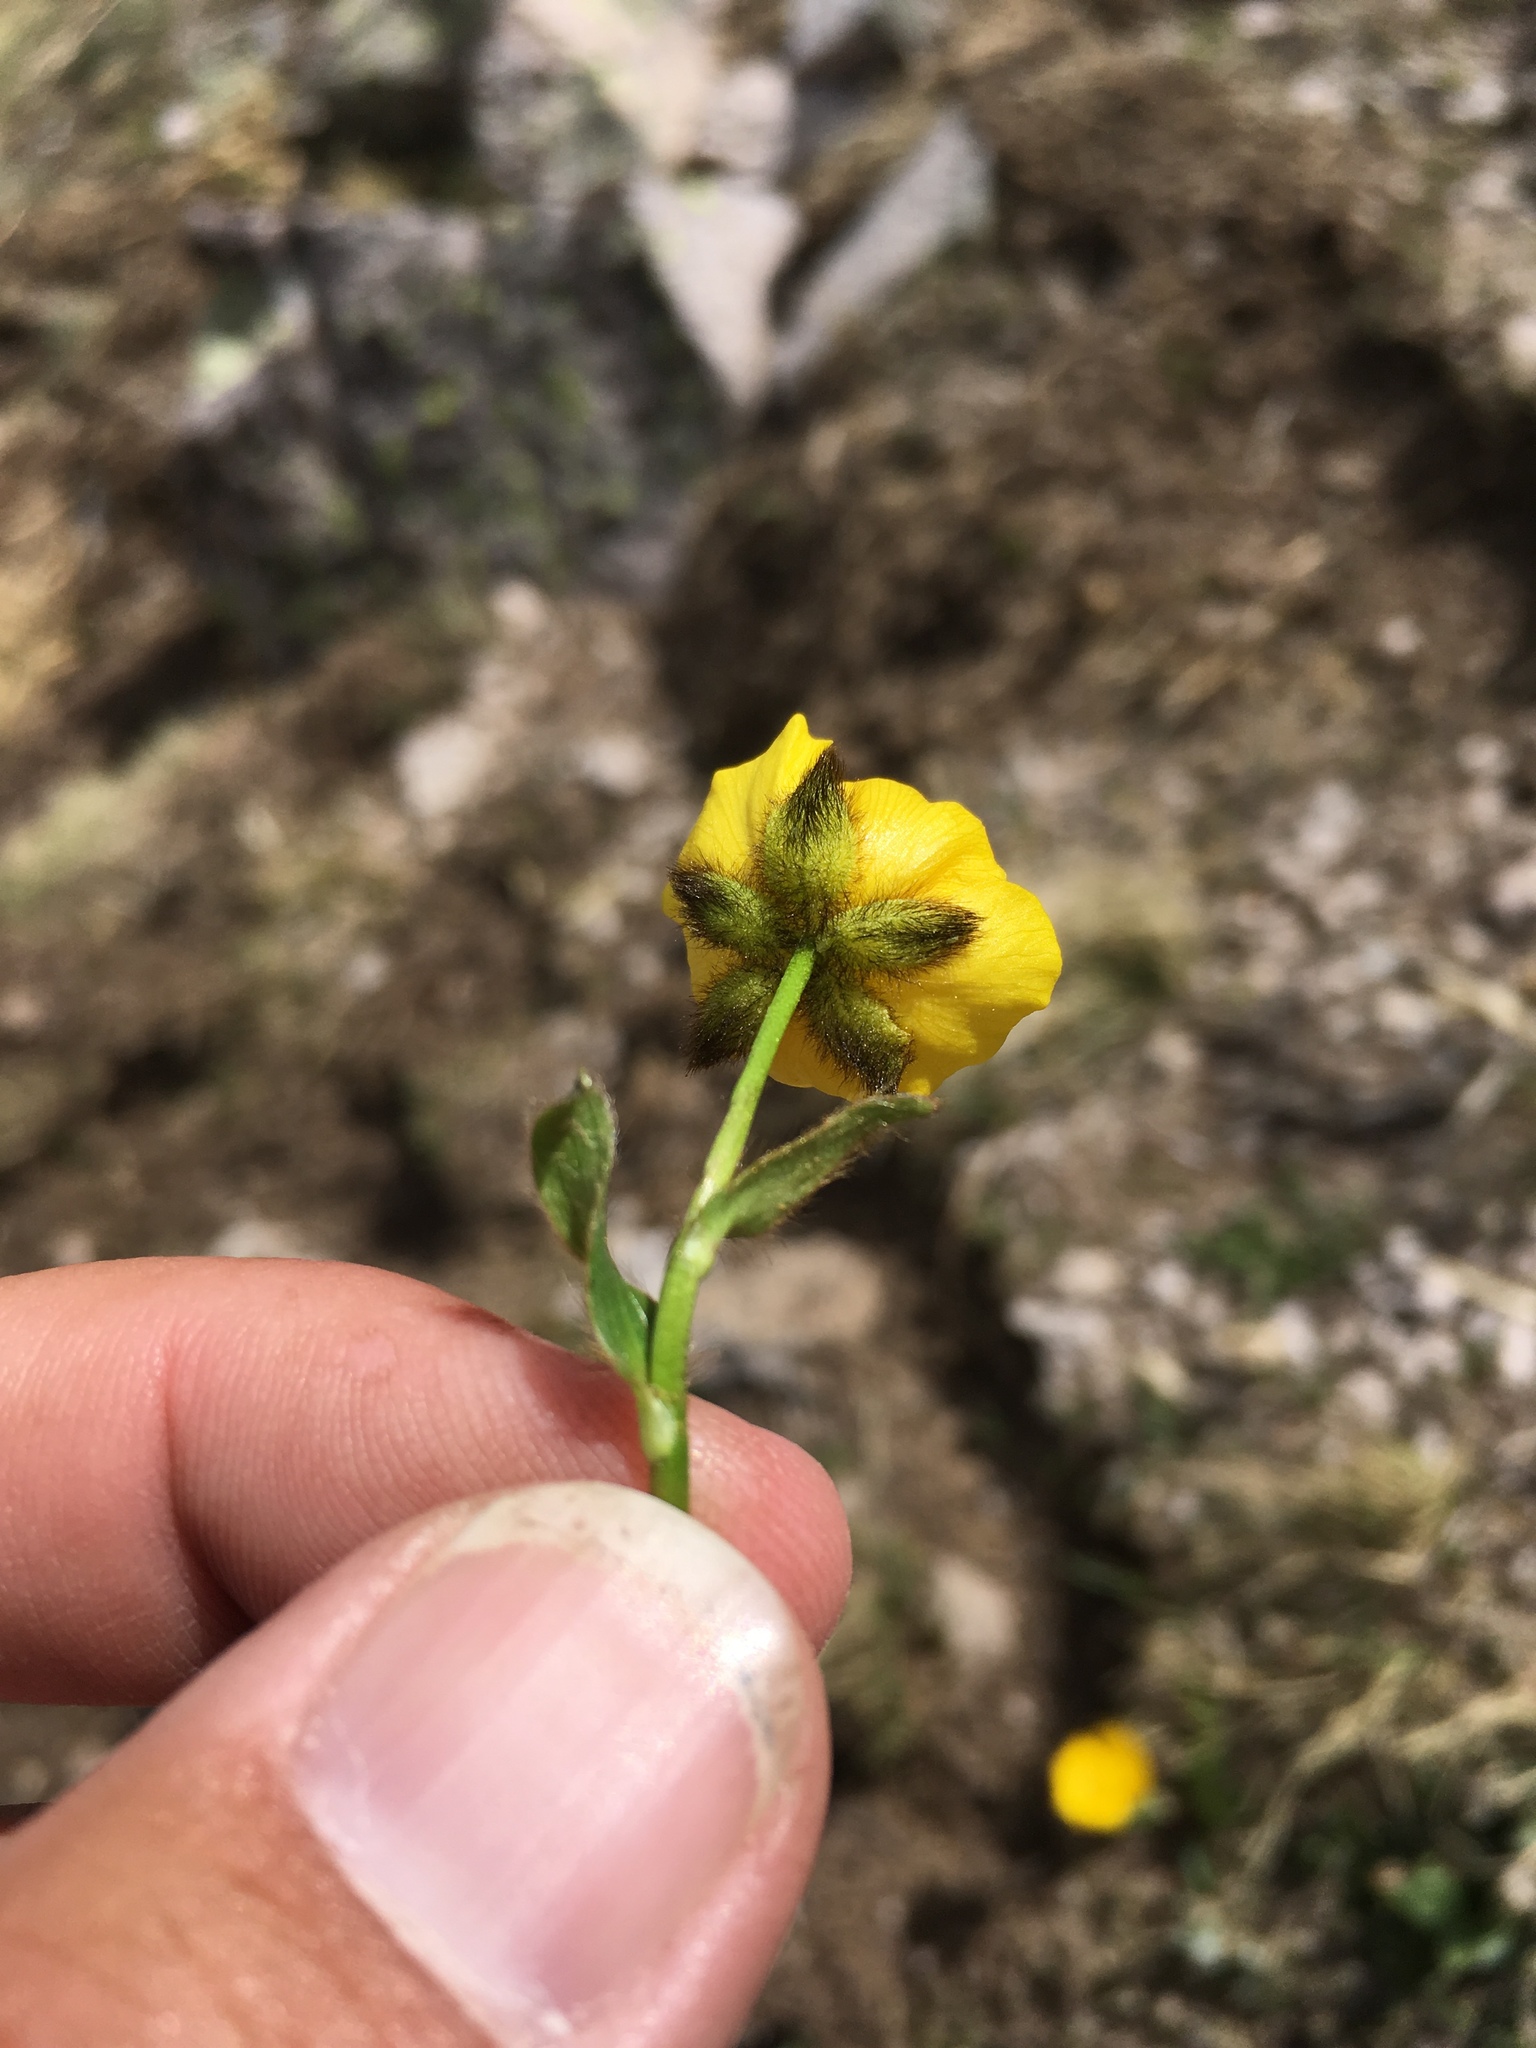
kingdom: Plantae
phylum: Tracheophyta
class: Magnoliopsida
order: Ranunculales
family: Ranunculaceae
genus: Ranunculus
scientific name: Ranunculus macauleyi
